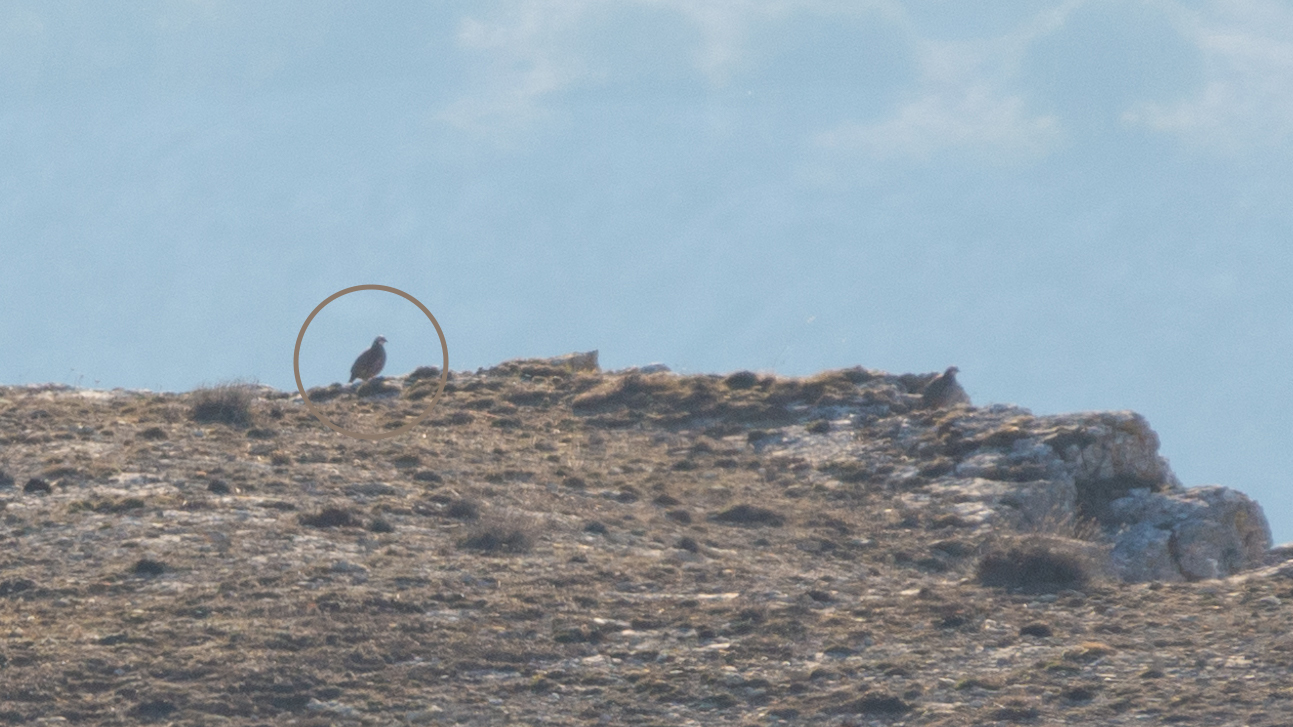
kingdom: Animalia
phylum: Chordata
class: Aves
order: Galliformes
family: Phasianidae
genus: Alectoris
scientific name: Alectoris rufa
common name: Red-legged partridge
